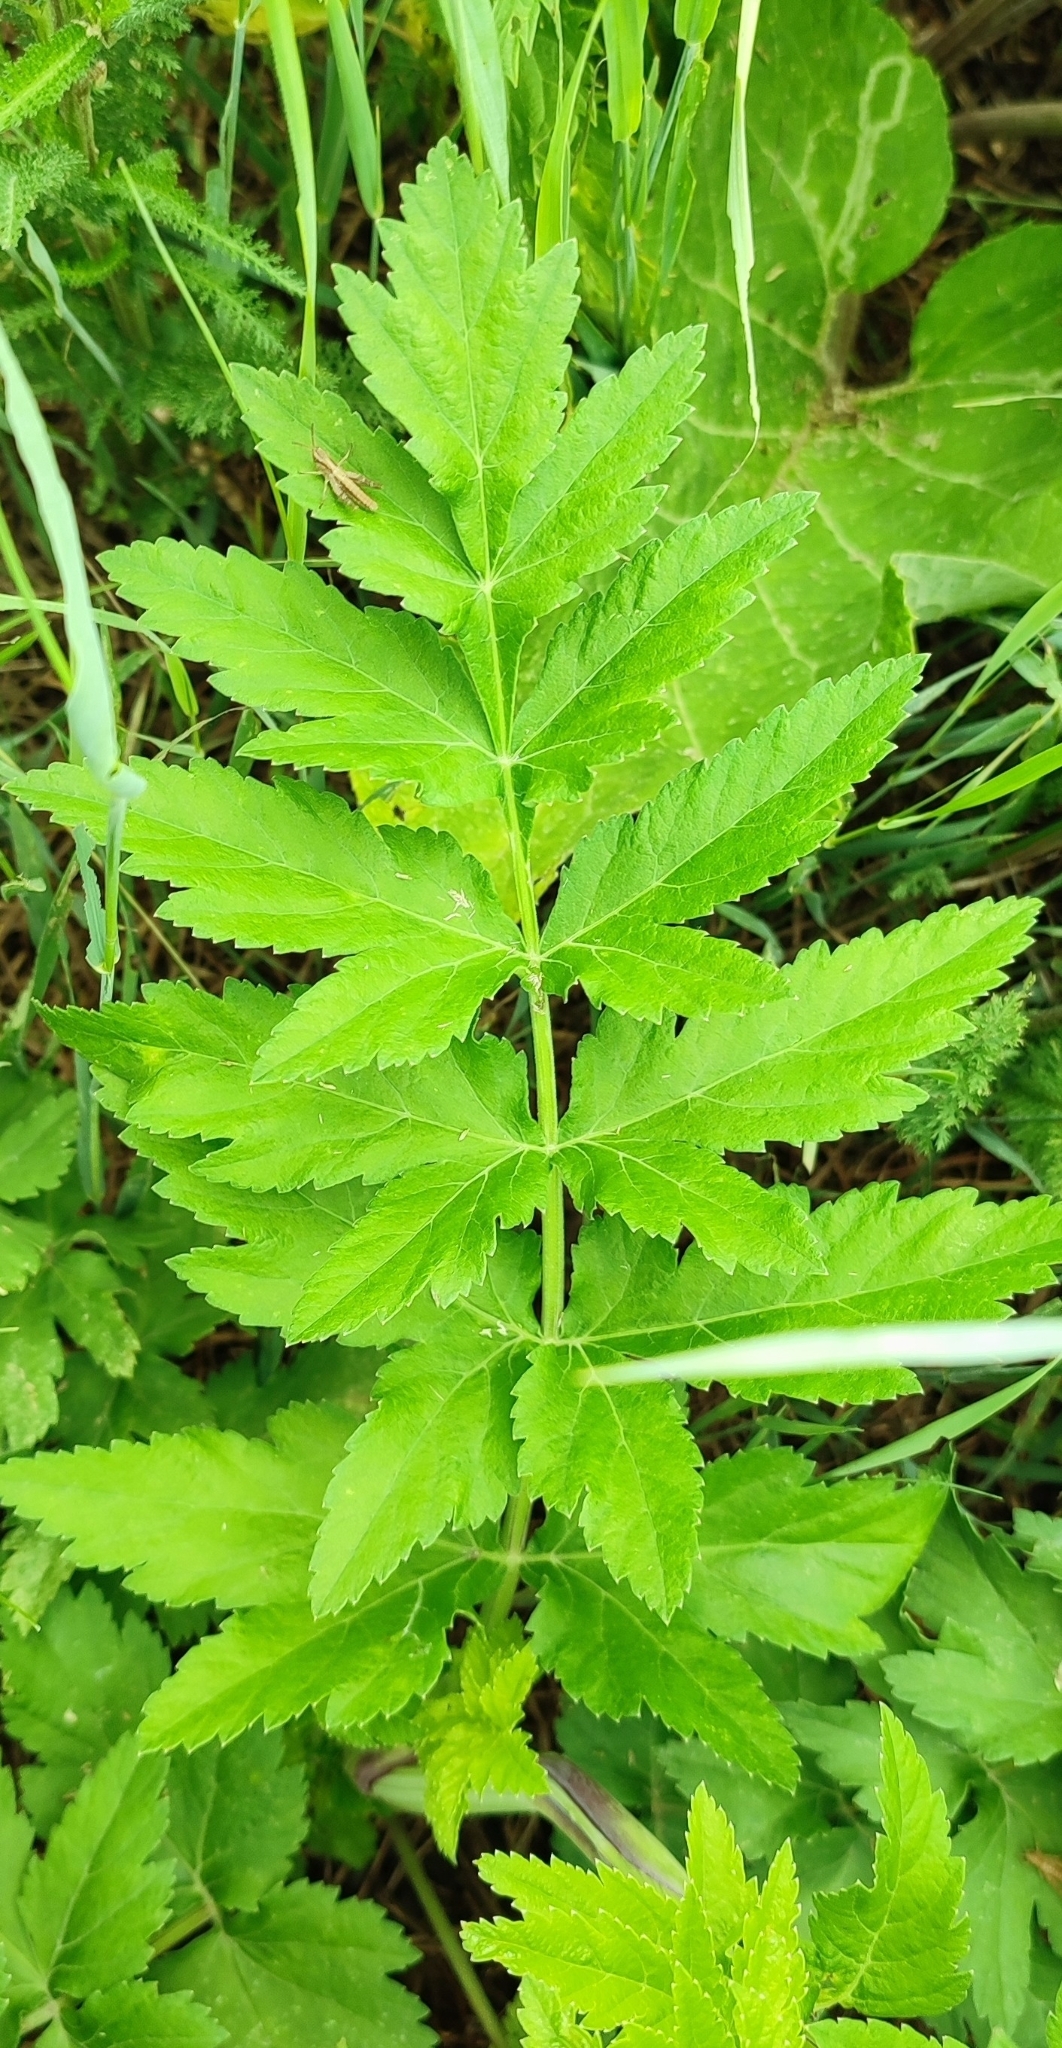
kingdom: Plantae
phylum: Tracheophyta
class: Magnoliopsida
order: Apiales
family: Apiaceae
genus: Pastinaca
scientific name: Pastinaca sativa
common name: Wild parsnip
